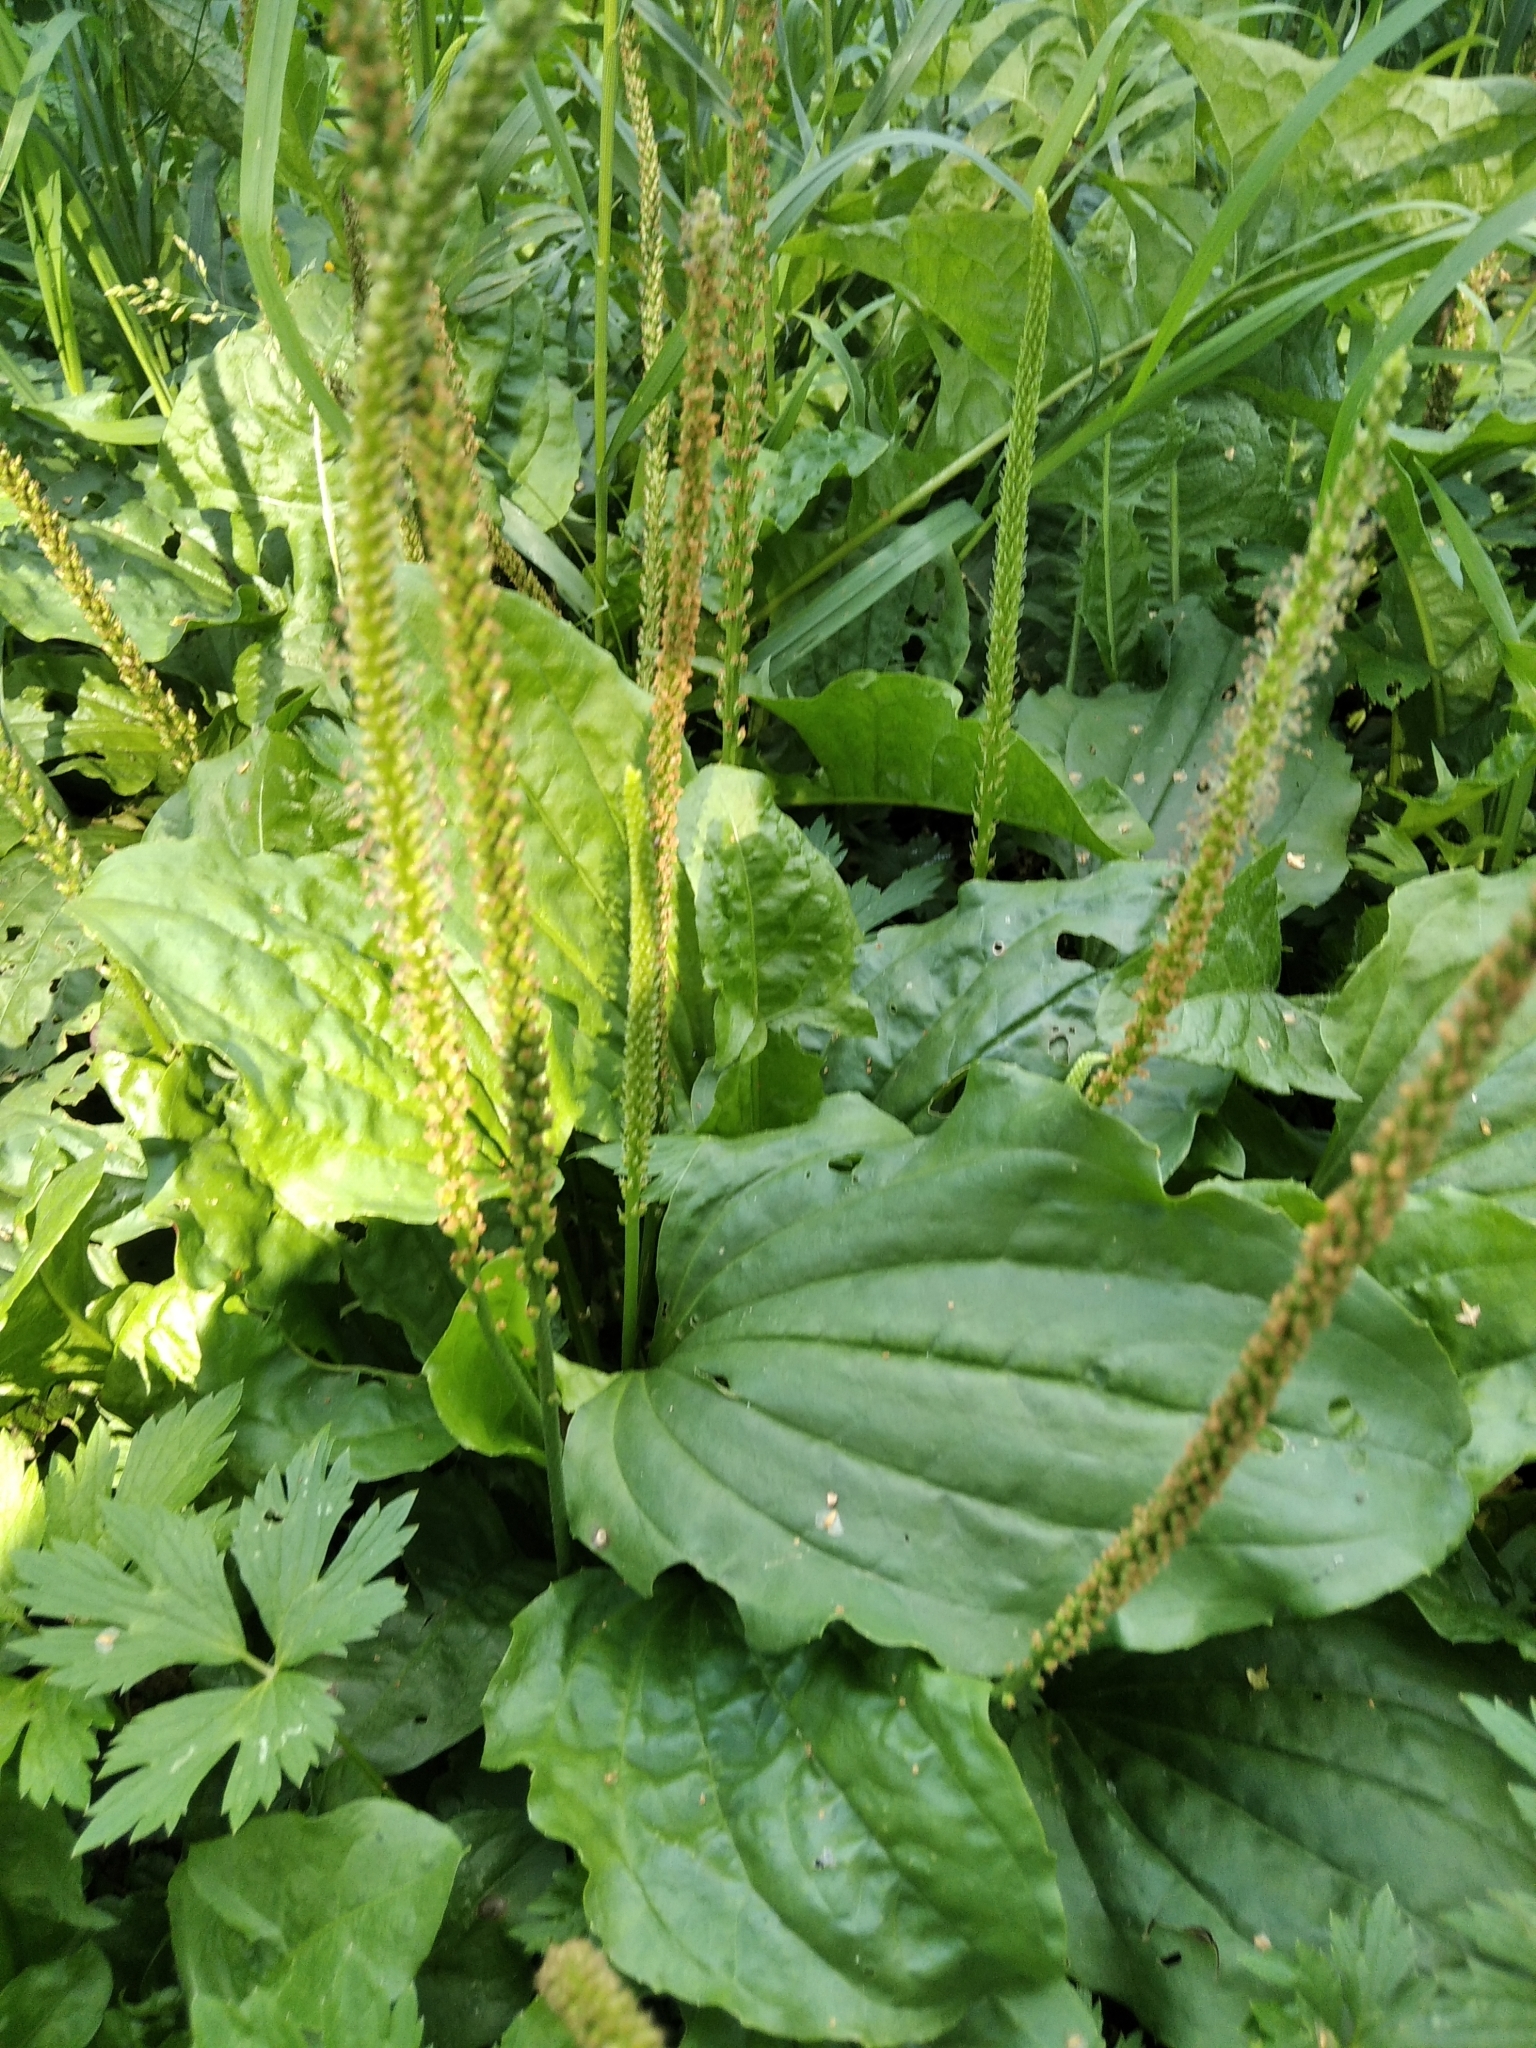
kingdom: Plantae
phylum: Tracheophyta
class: Magnoliopsida
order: Lamiales
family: Plantaginaceae
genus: Plantago
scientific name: Plantago major
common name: Common plantain
